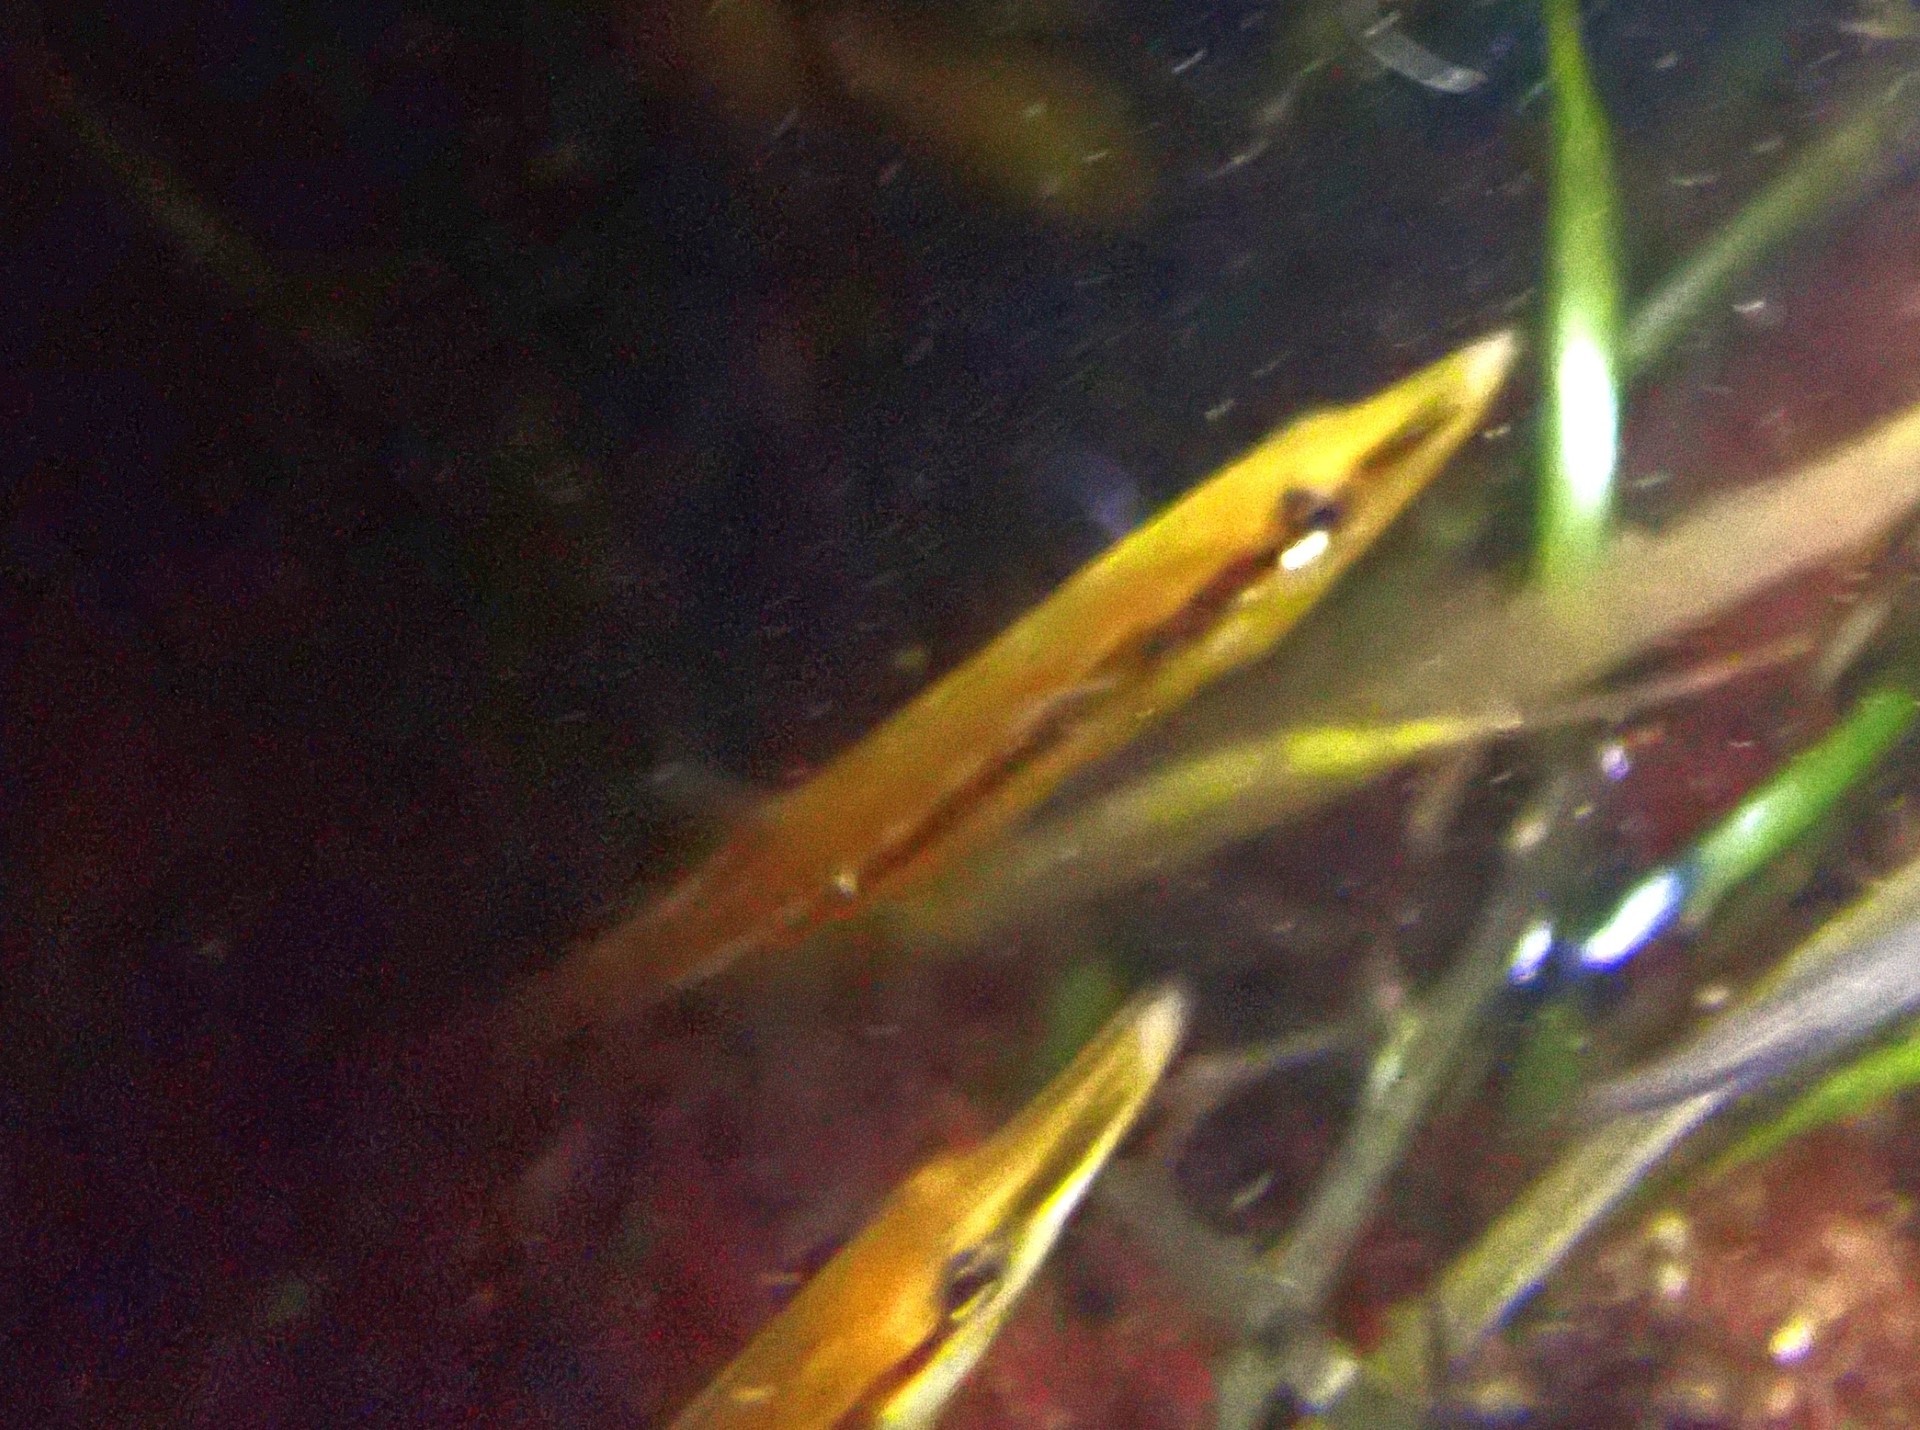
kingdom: Animalia
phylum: Chordata
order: Gasterosteiformes
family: Gasterosteidae
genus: Spinachia
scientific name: Spinachia spinachia
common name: Fifteen-spined stickleback
